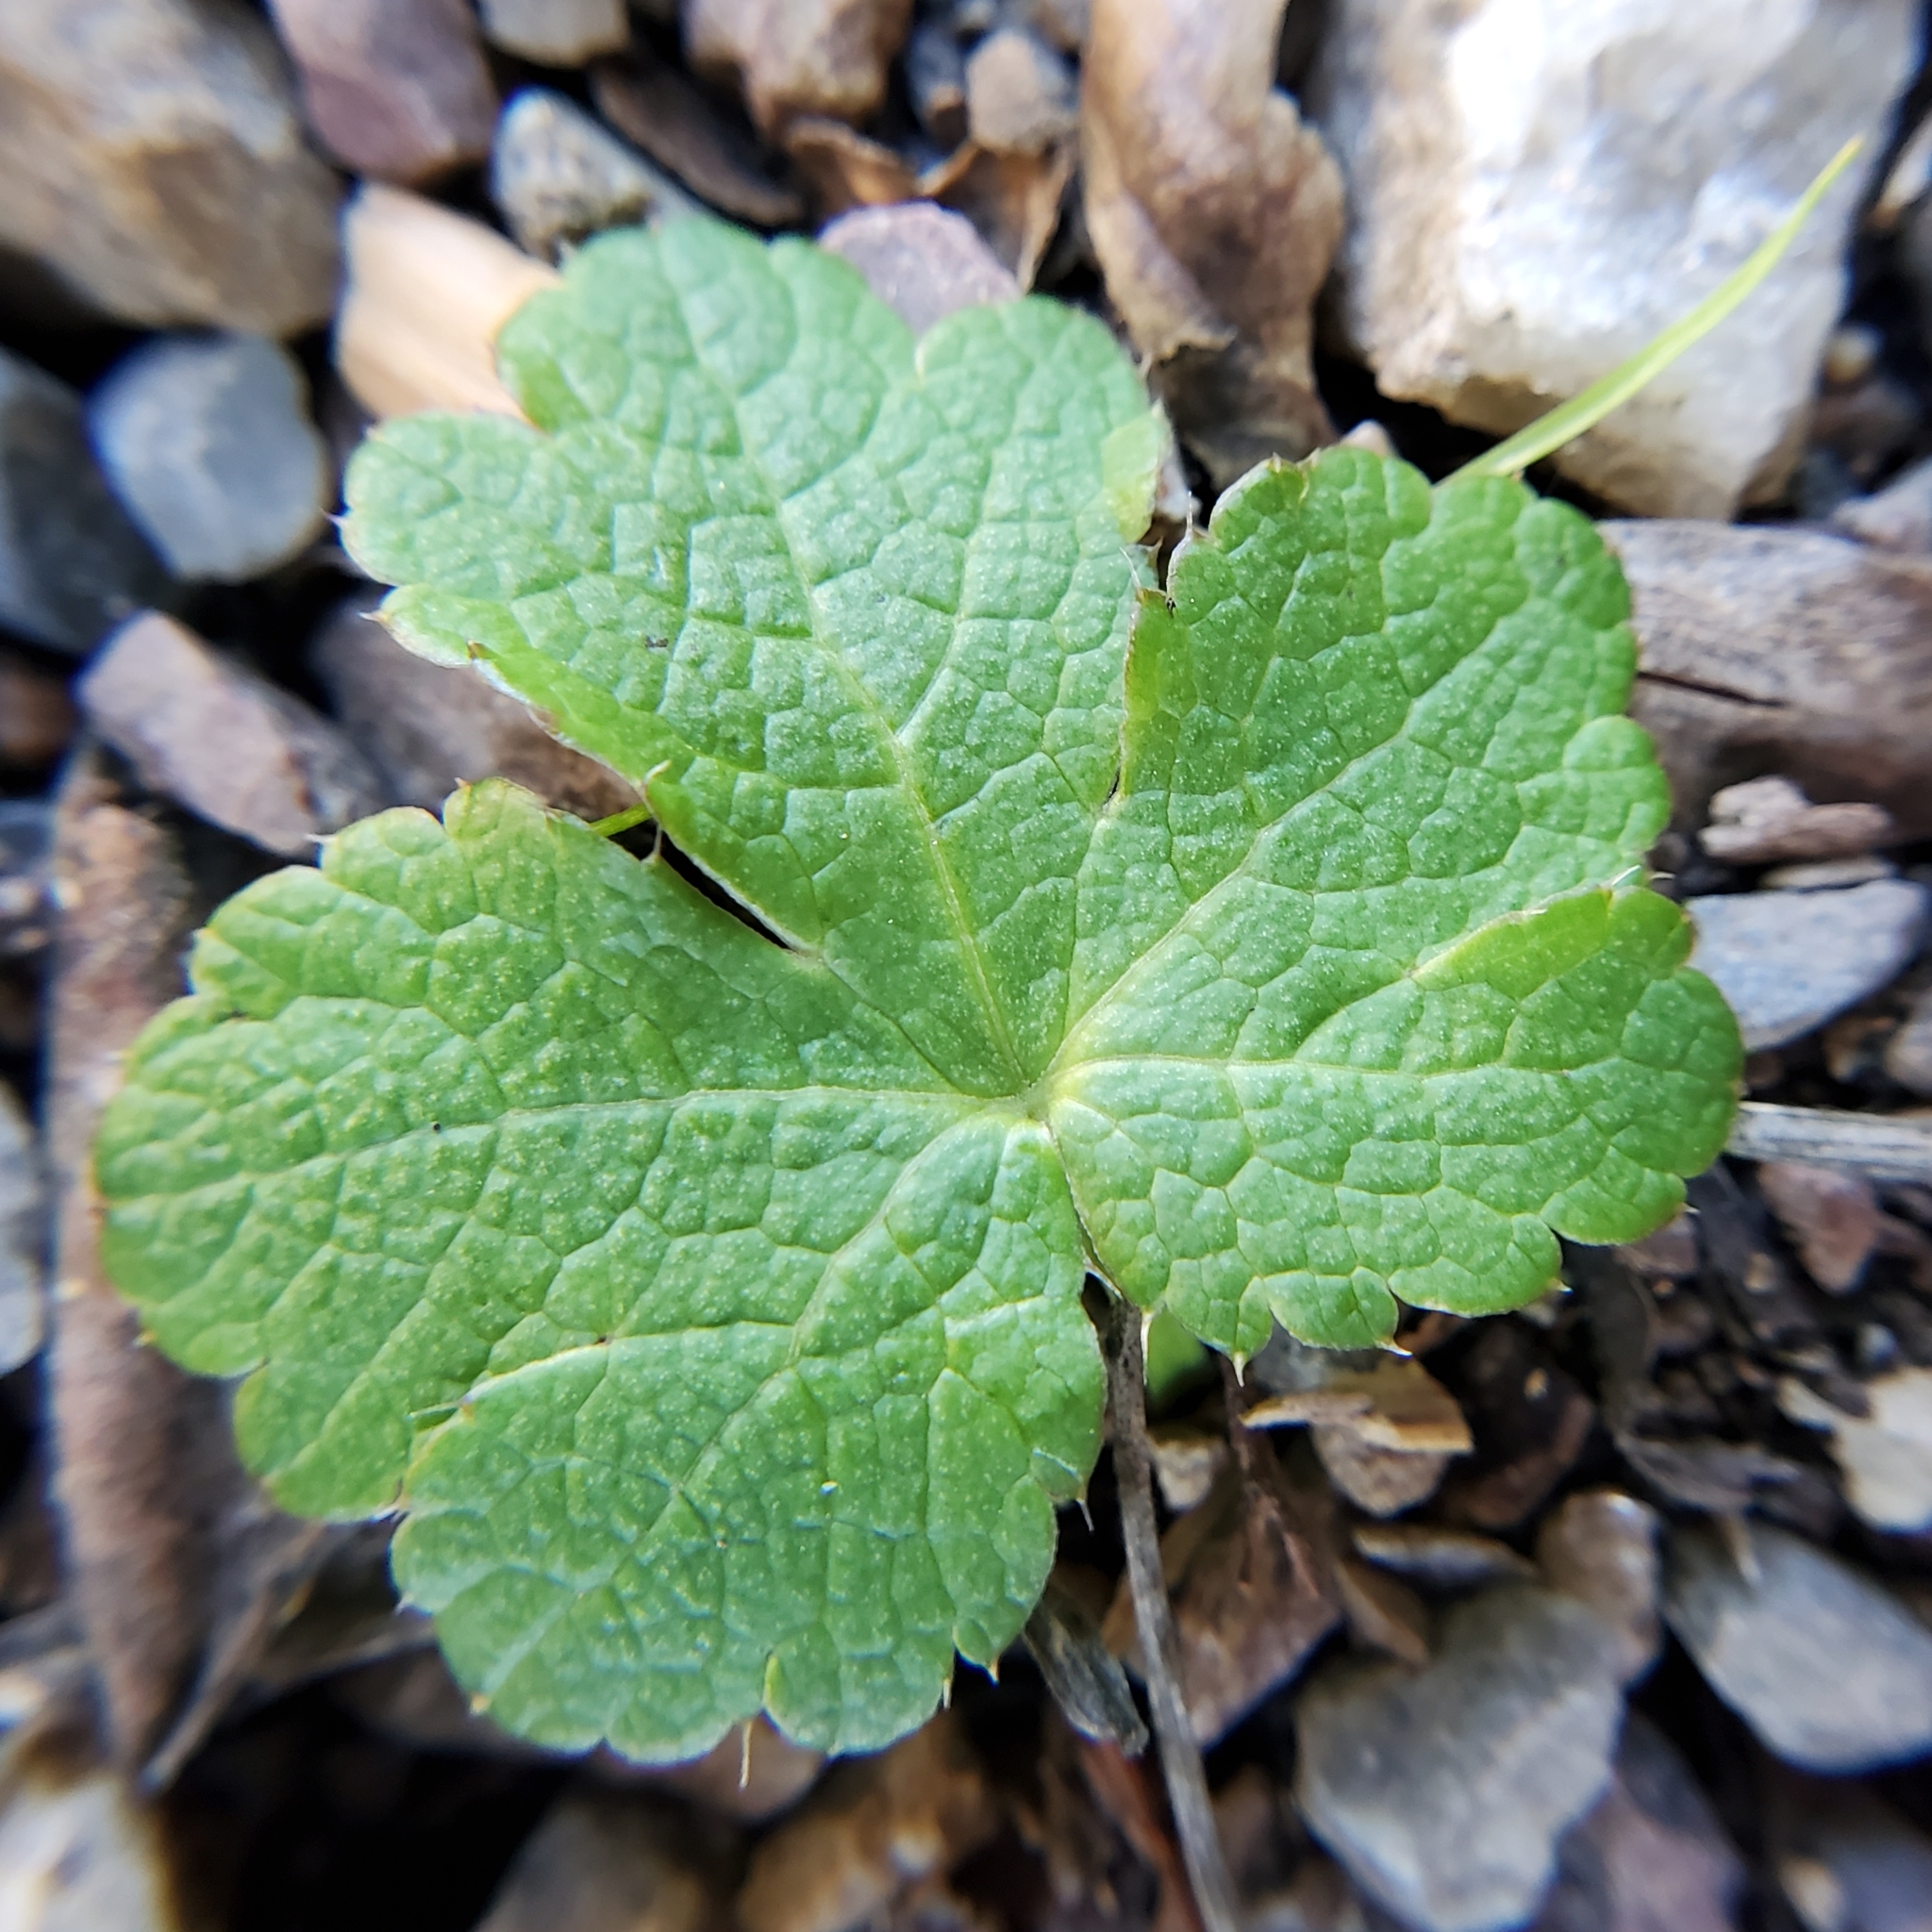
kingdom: Plantae
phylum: Tracheophyta
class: Magnoliopsida
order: Apiales
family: Apiaceae
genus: Sanicula
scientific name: Sanicula crassicaulis
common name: Western snakeroot
